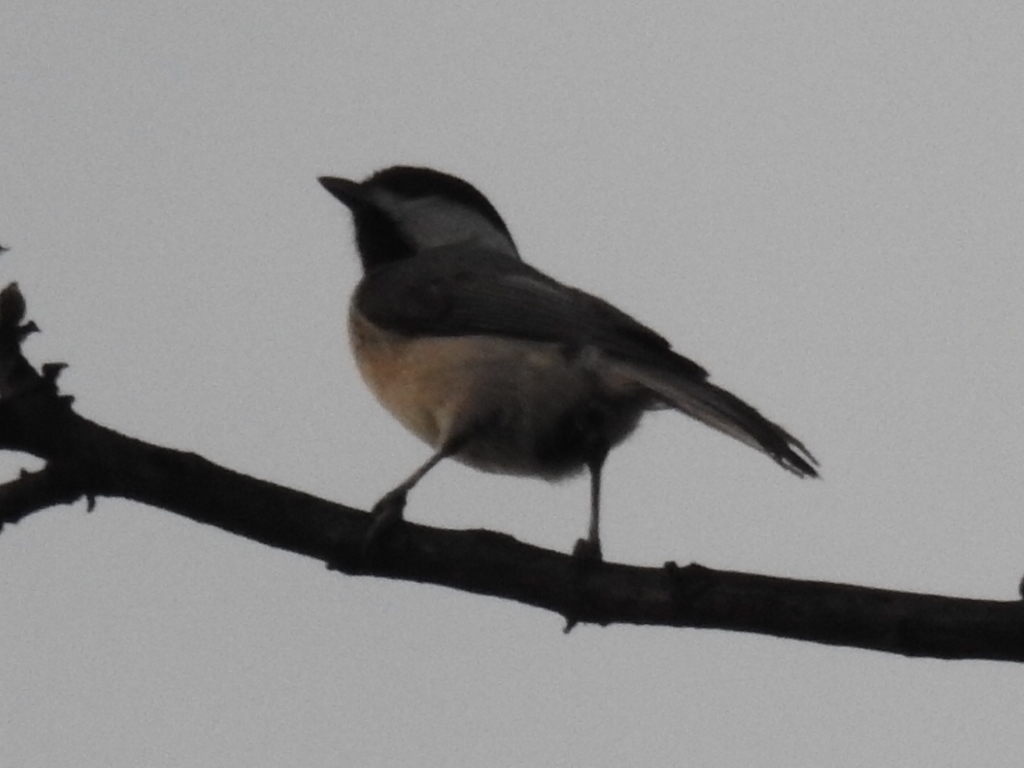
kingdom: Animalia
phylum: Chordata
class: Aves
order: Passeriformes
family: Paridae
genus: Poecile
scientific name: Poecile carolinensis
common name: Carolina chickadee
